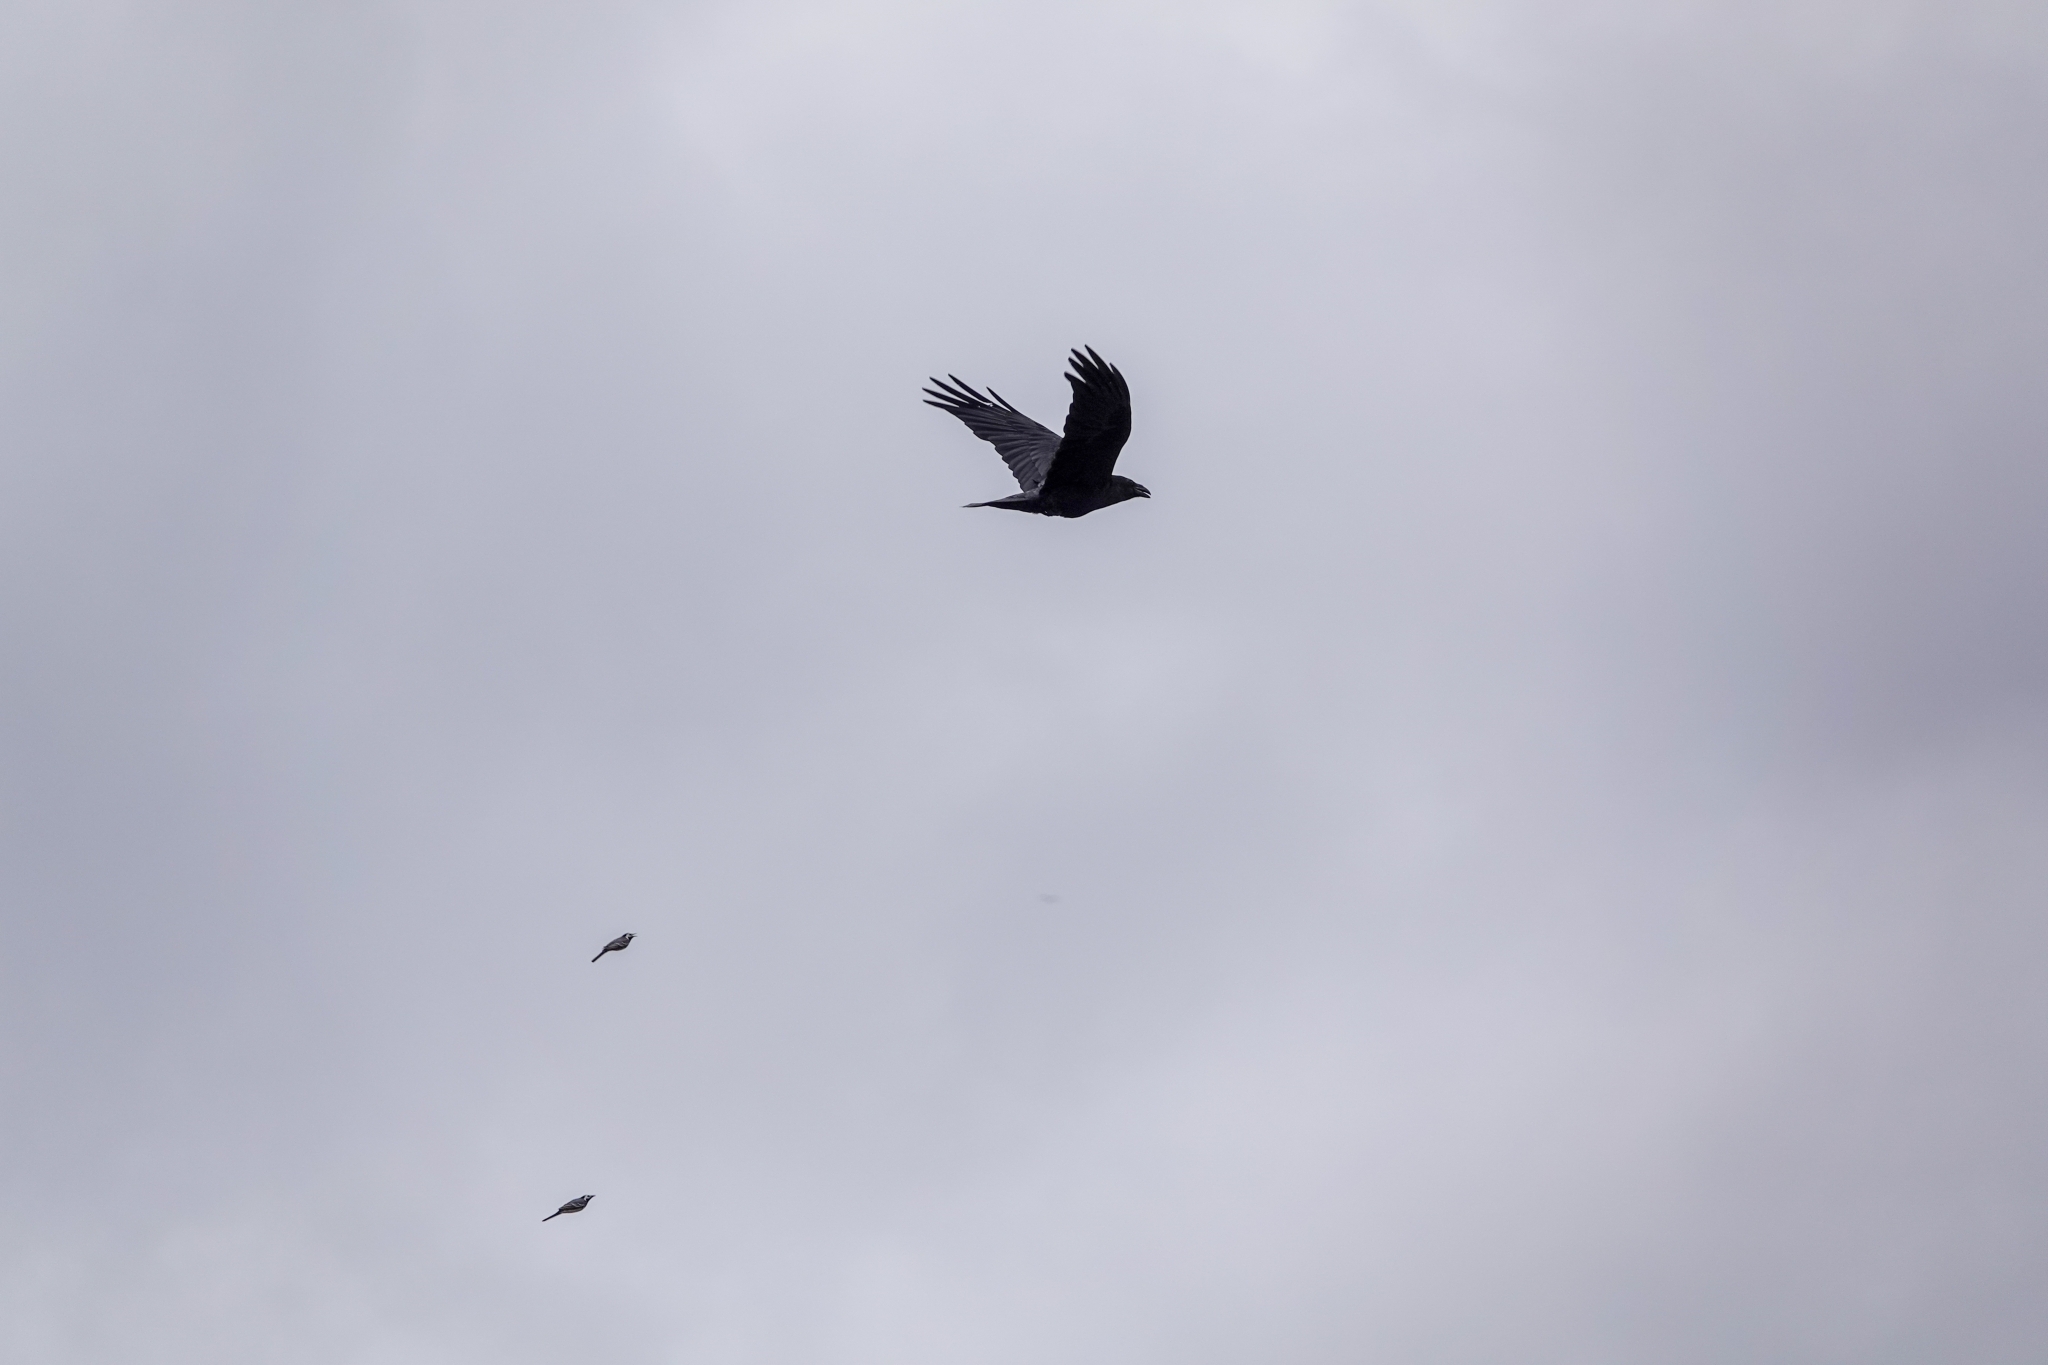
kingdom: Animalia
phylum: Chordata
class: Aves
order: Passeriformes
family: Corvidae
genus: Corvus
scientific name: Corvus corax
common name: Common raven
